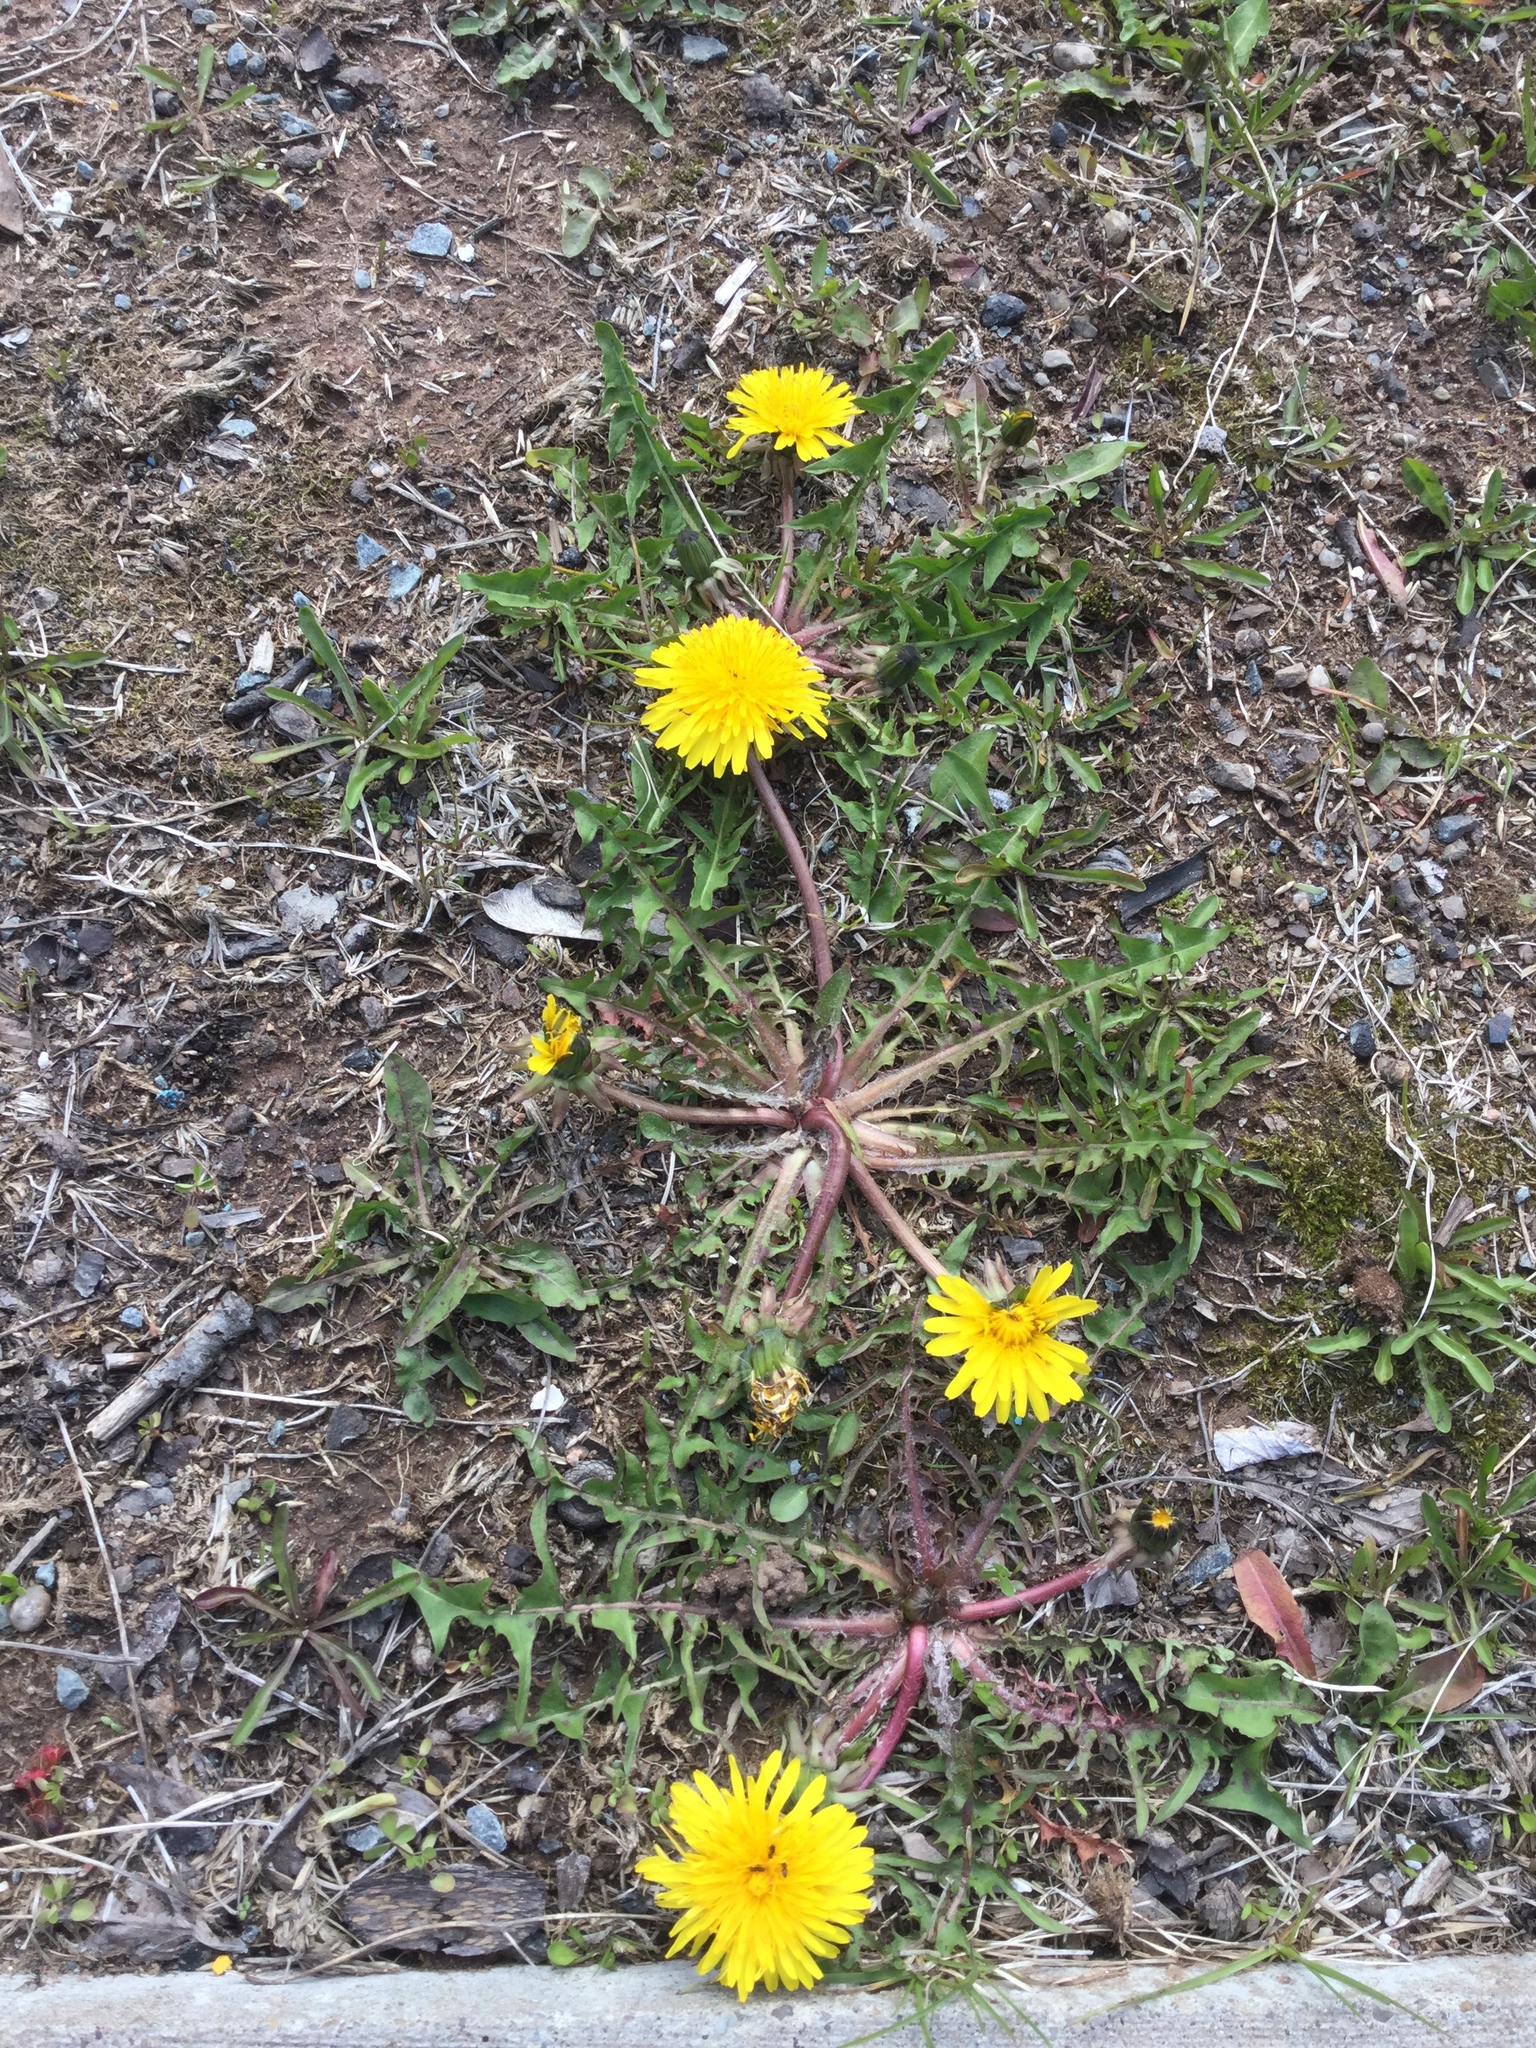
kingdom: Plantae
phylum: Tracheophyta
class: Magnoliopsida
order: Asterales
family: Asteraceae
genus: Taraxacum
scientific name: Taraxacum officinale
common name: Common dandelion
